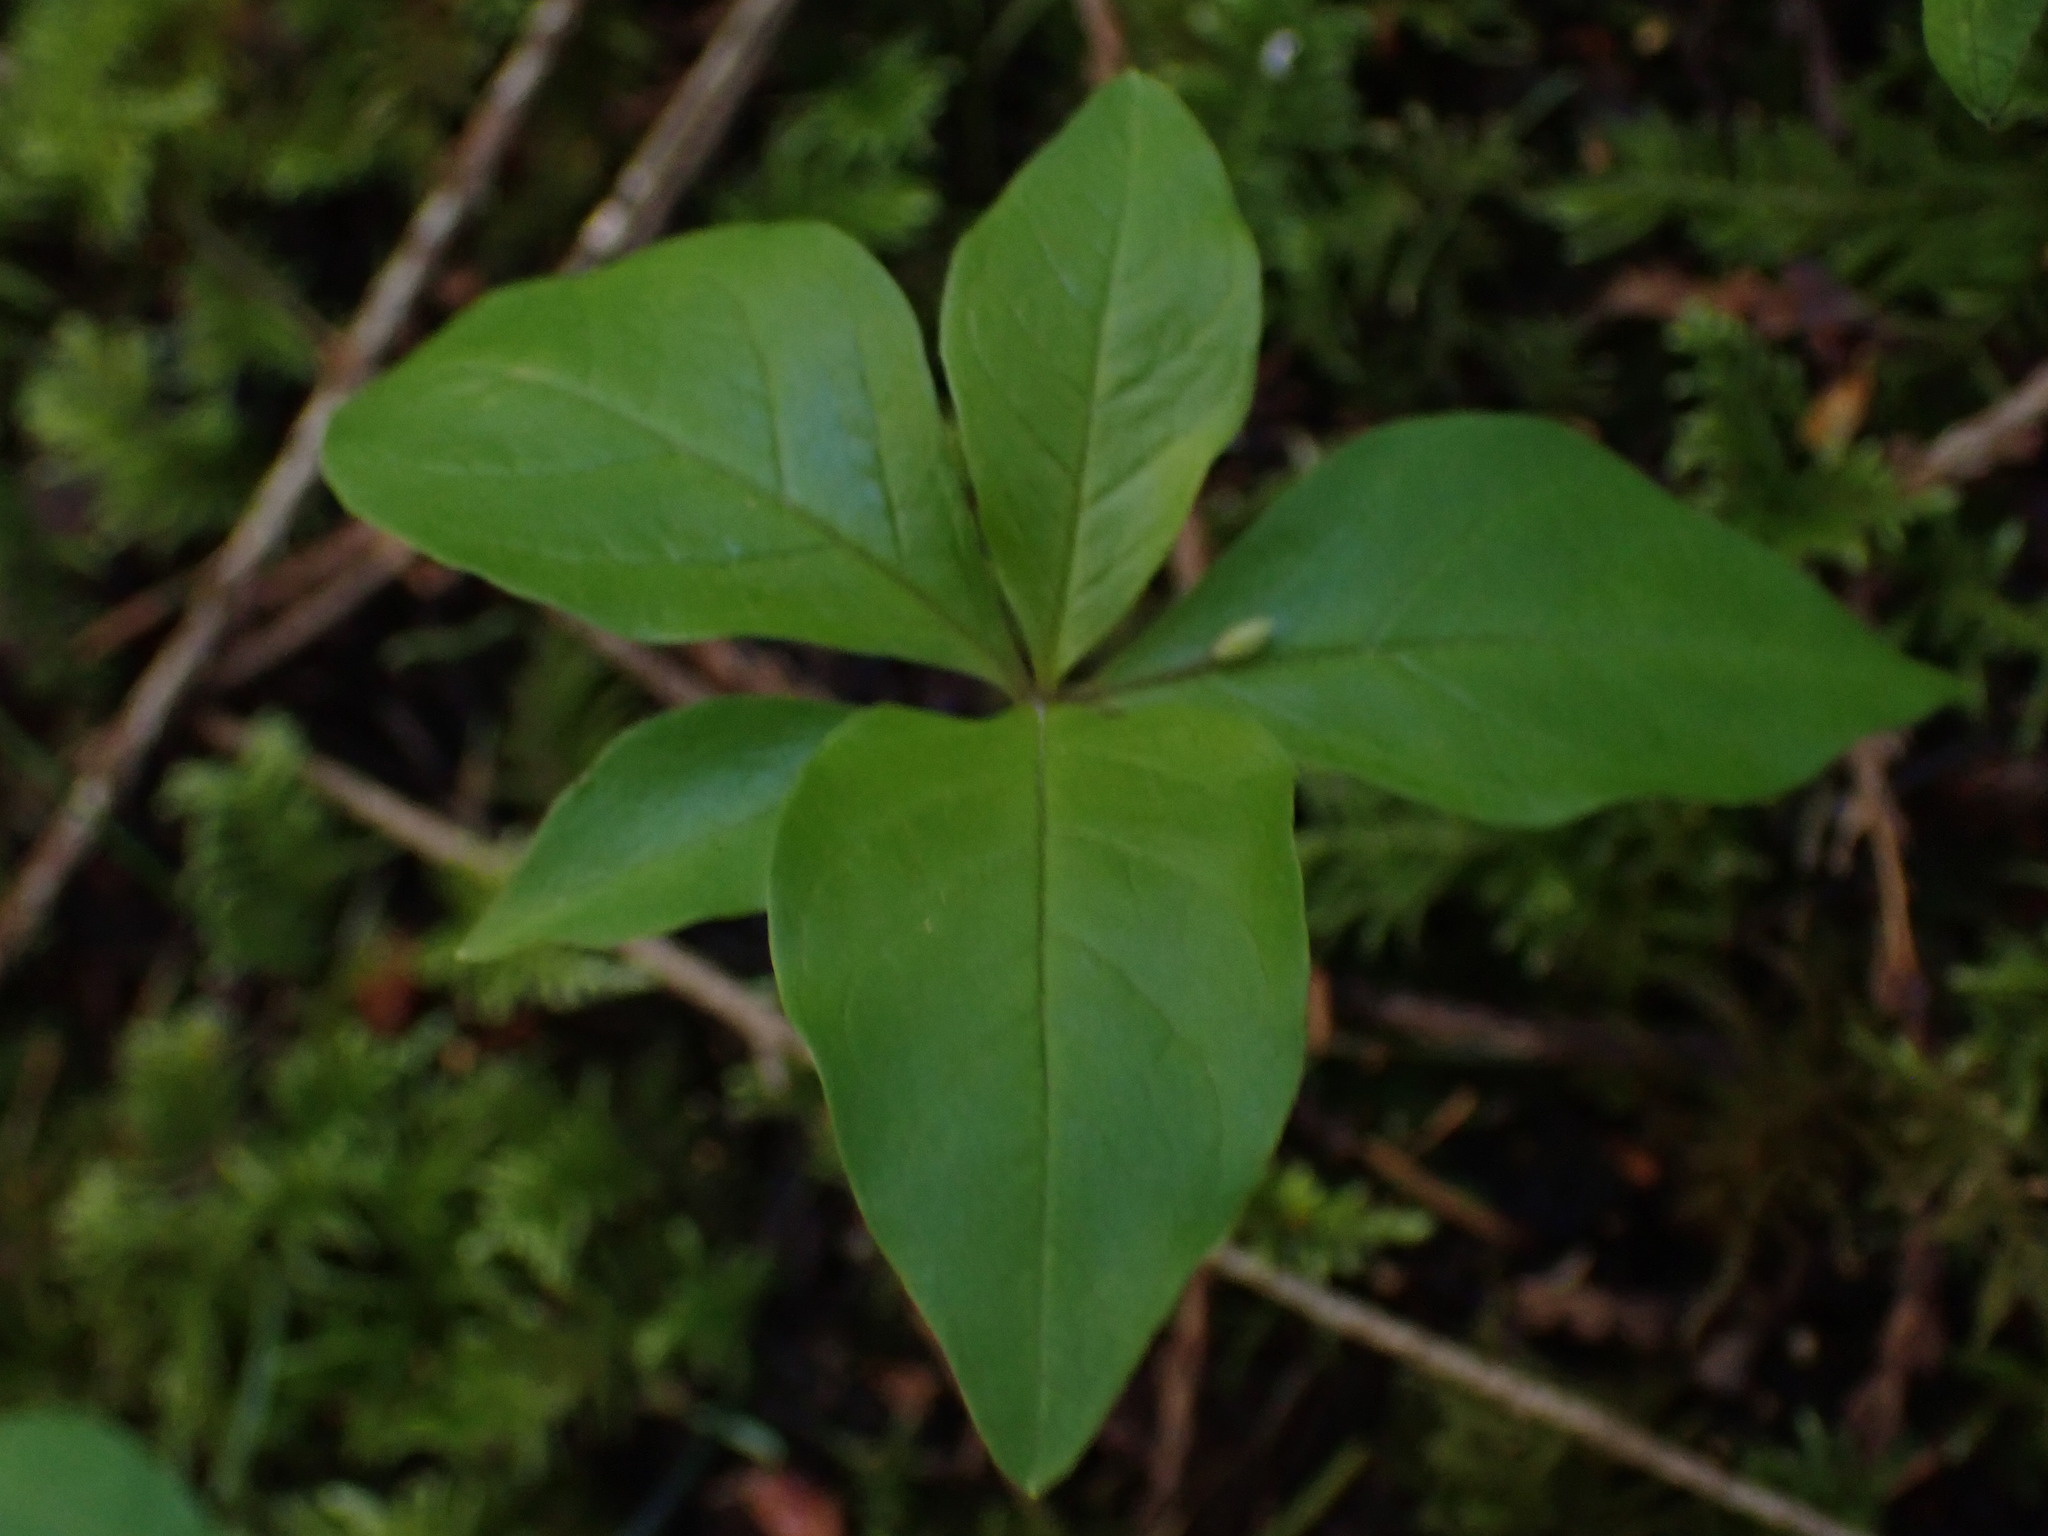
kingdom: Plantae
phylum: Tracheophyta
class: Magnoliopsida
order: Ericales
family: Primulaceae
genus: Lysimachia
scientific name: Lysimachia latifolia
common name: Pacific starflower
